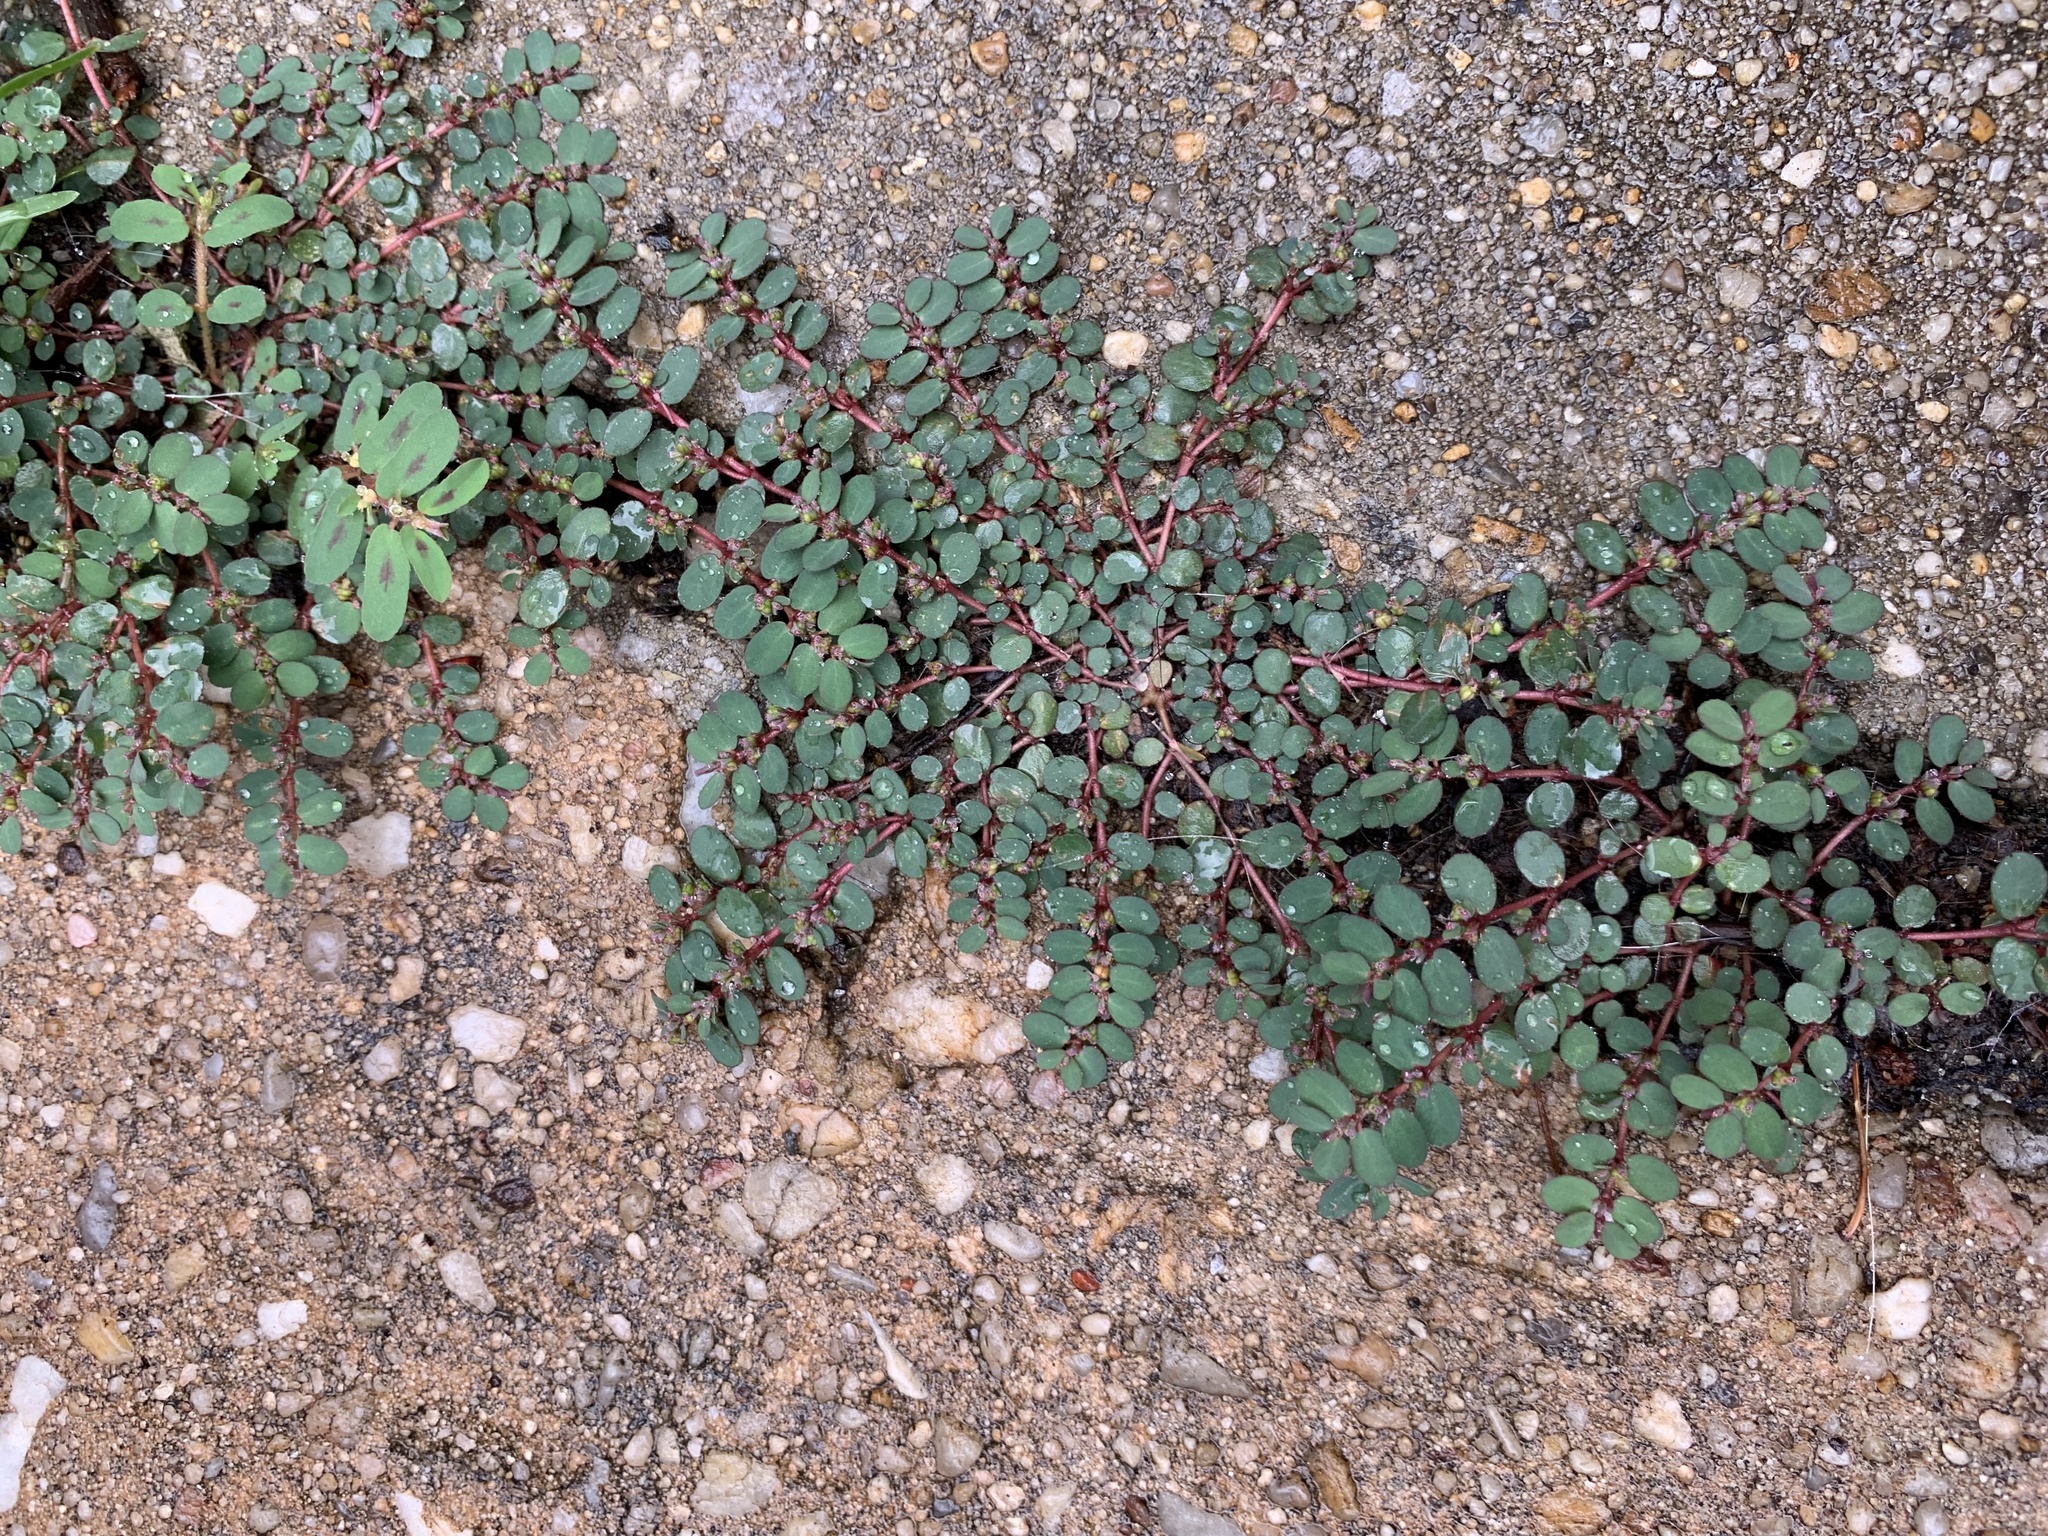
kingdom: Plantae
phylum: Tracheophyta
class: Magnoliopsida
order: Malpighiales
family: Euphorbiaceae
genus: Euphorbia
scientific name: Euphorbia prostrata
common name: Prostrate sandmat
